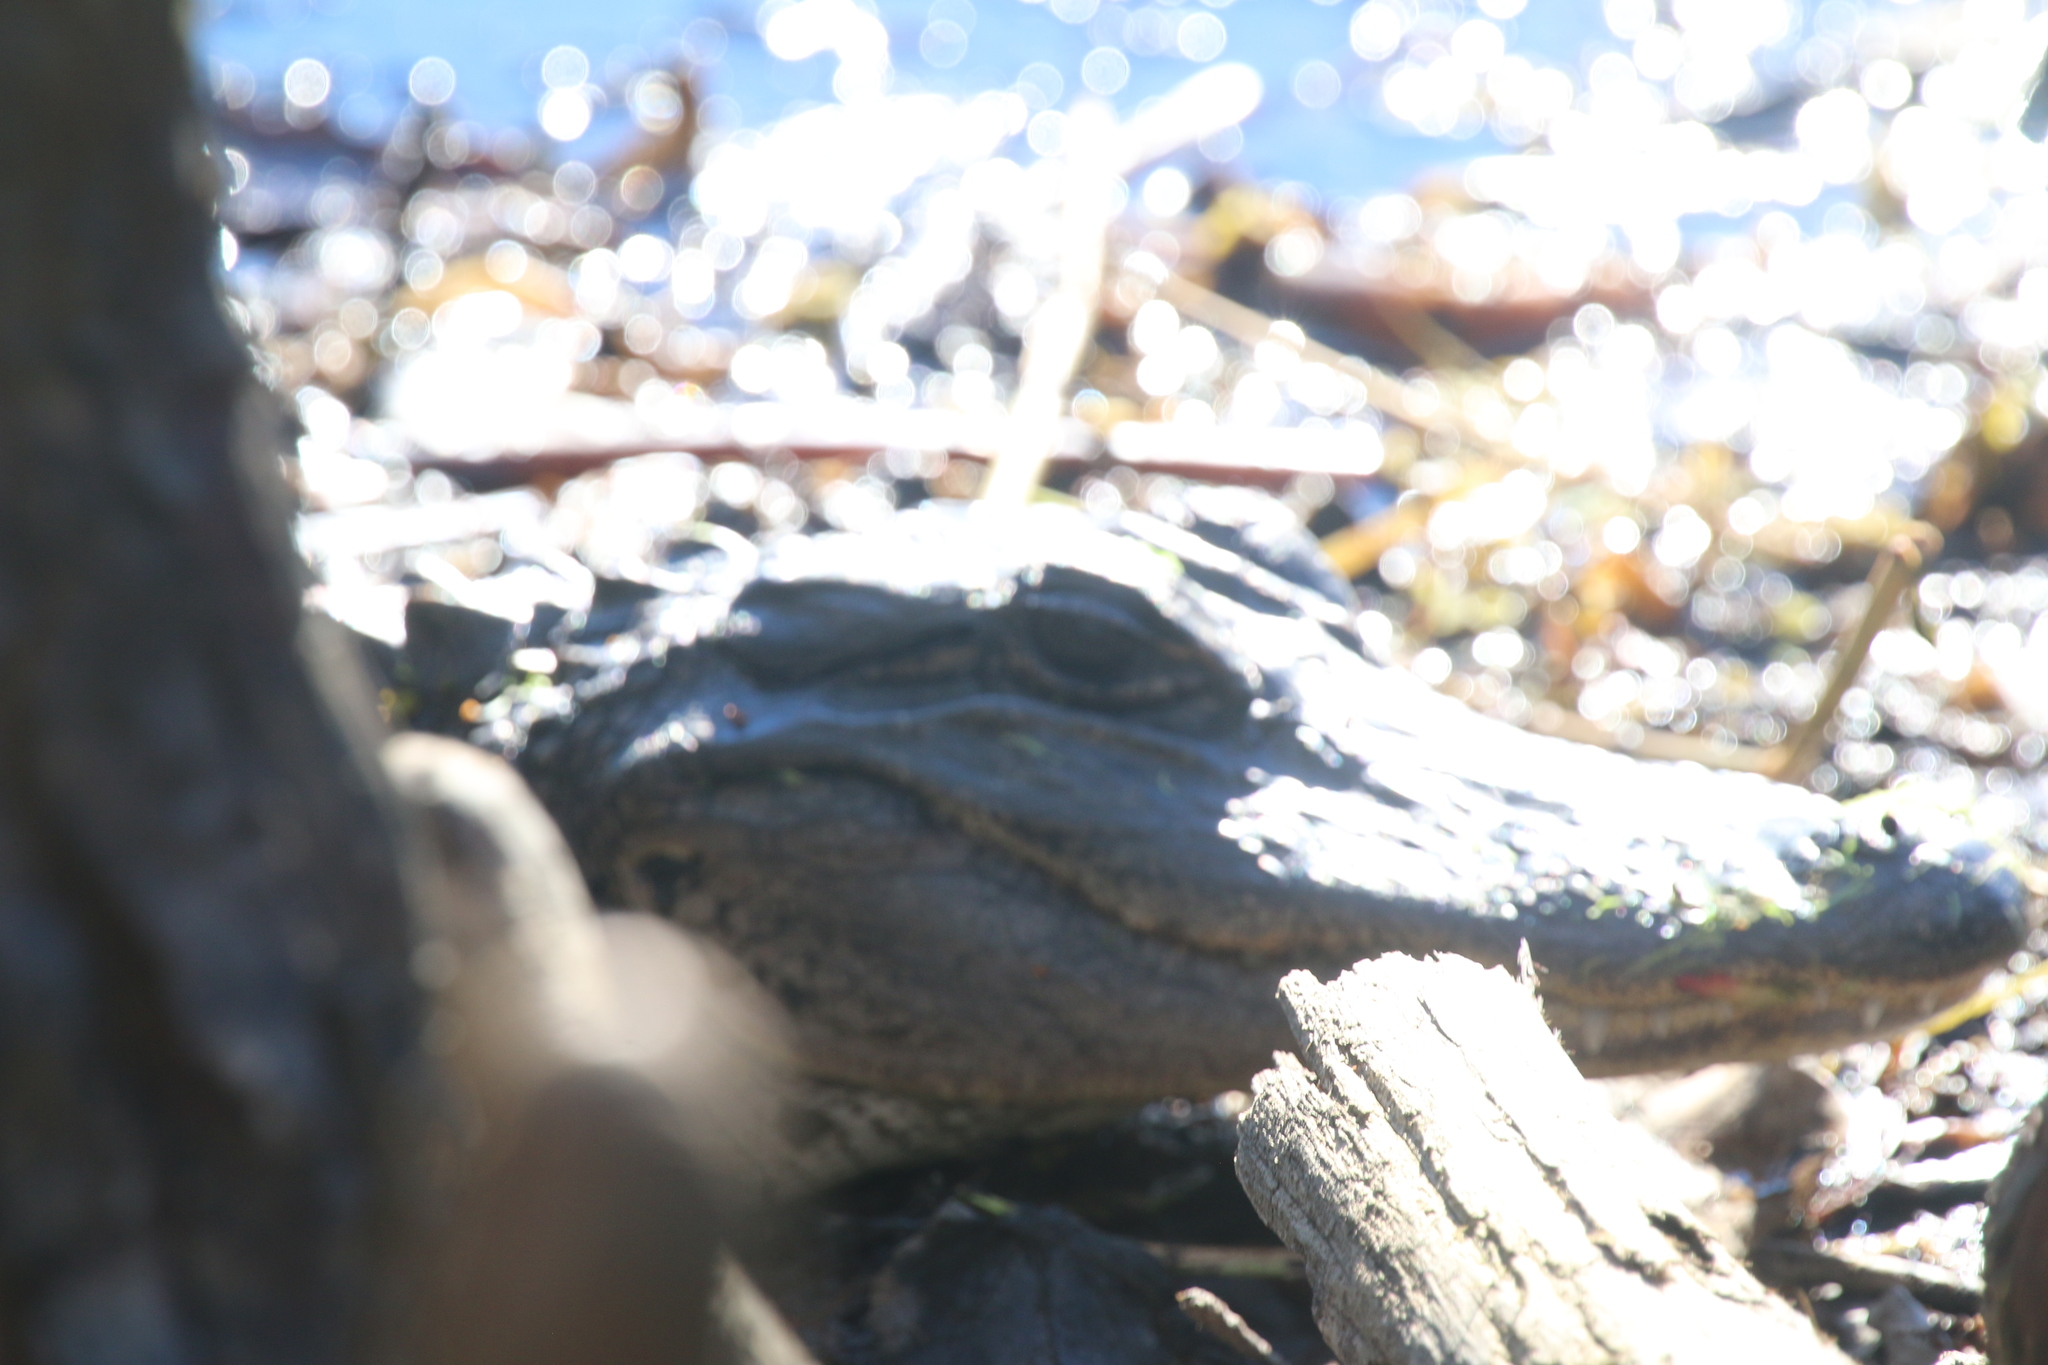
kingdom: Animalia
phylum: Chordata
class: Crocodylia
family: Alligatoridae
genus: Alligator
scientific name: Alligator mississippiensis
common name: American alligator
